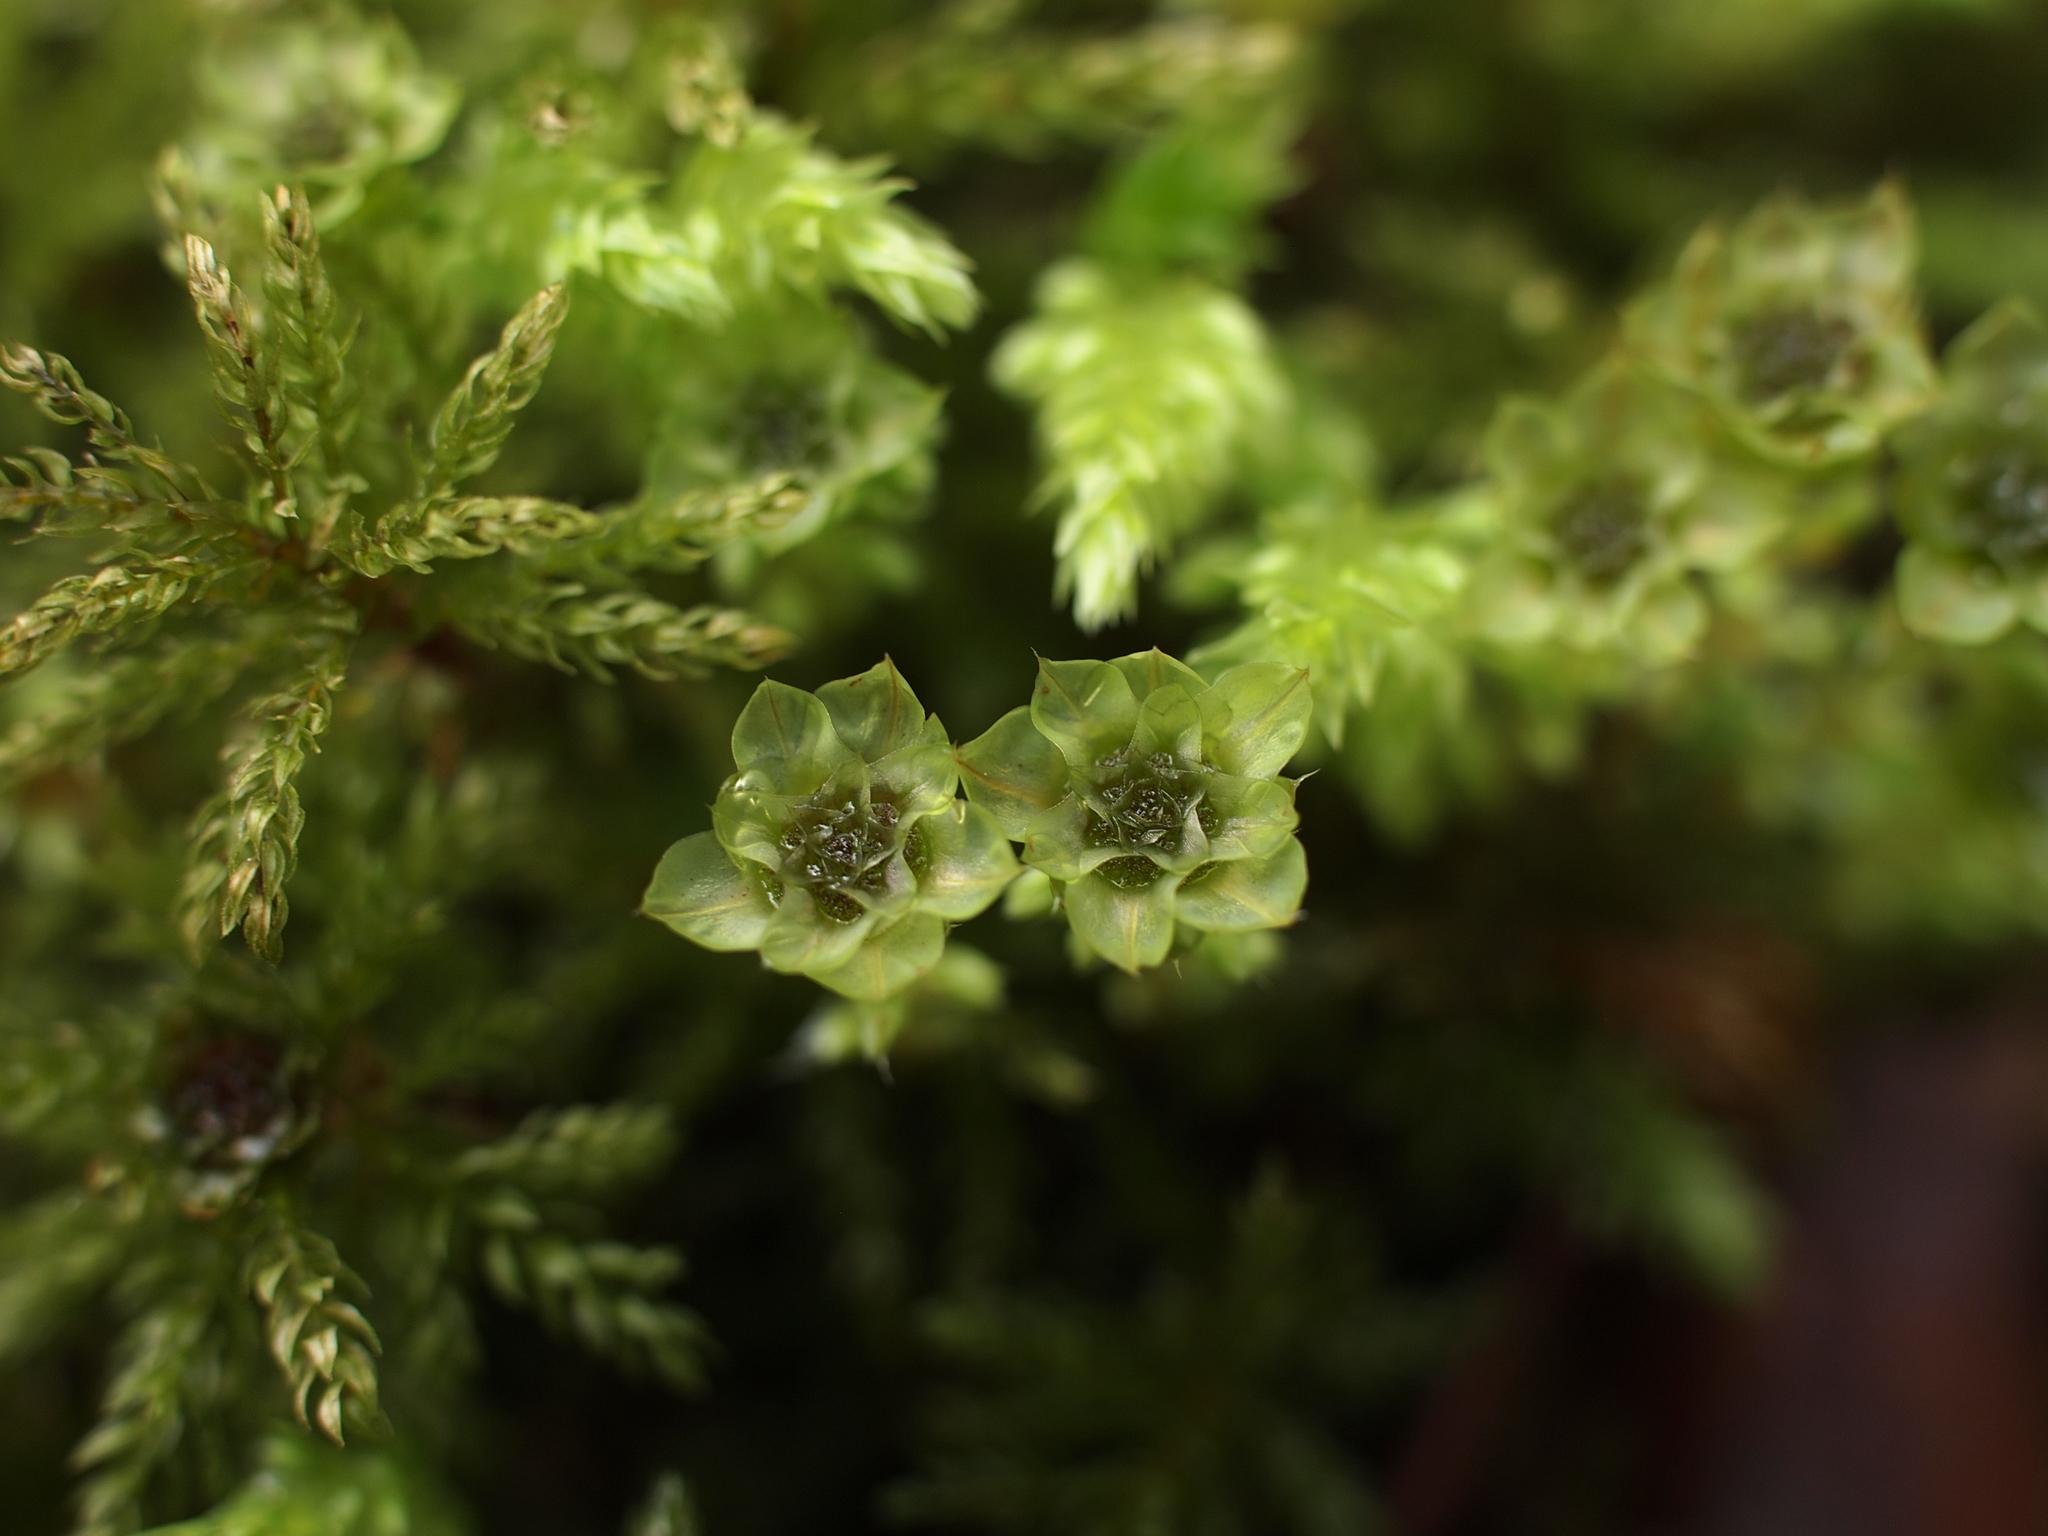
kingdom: Plantae
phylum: Bryophyta
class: Bryopsida
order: Bryales
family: Mniaceae
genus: Leucolepis
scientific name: Leucolepis acanthoneura
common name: Leucolepis umbrella moss
